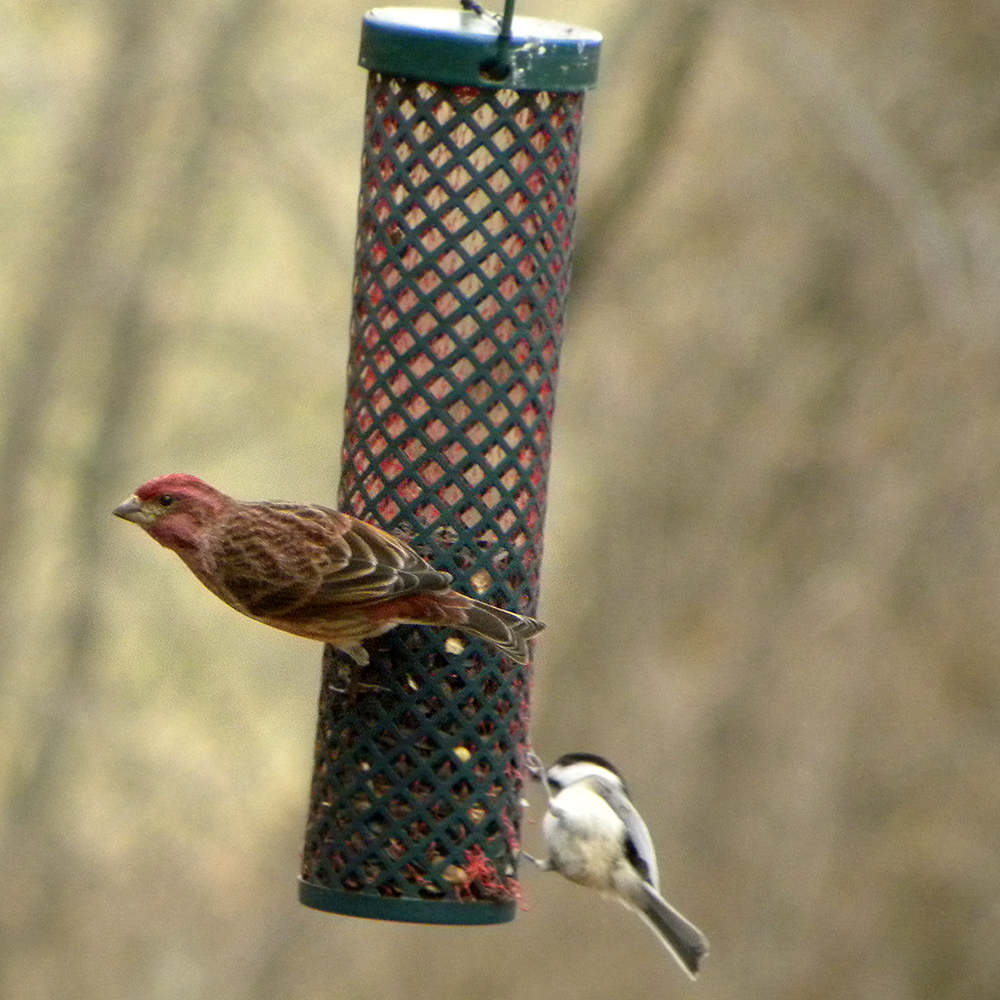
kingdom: Animalia
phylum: Chordata
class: Aves
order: Passeriformes
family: Fringillidae
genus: Haemorhous
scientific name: Haemorhous purpureus
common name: Purple finch
